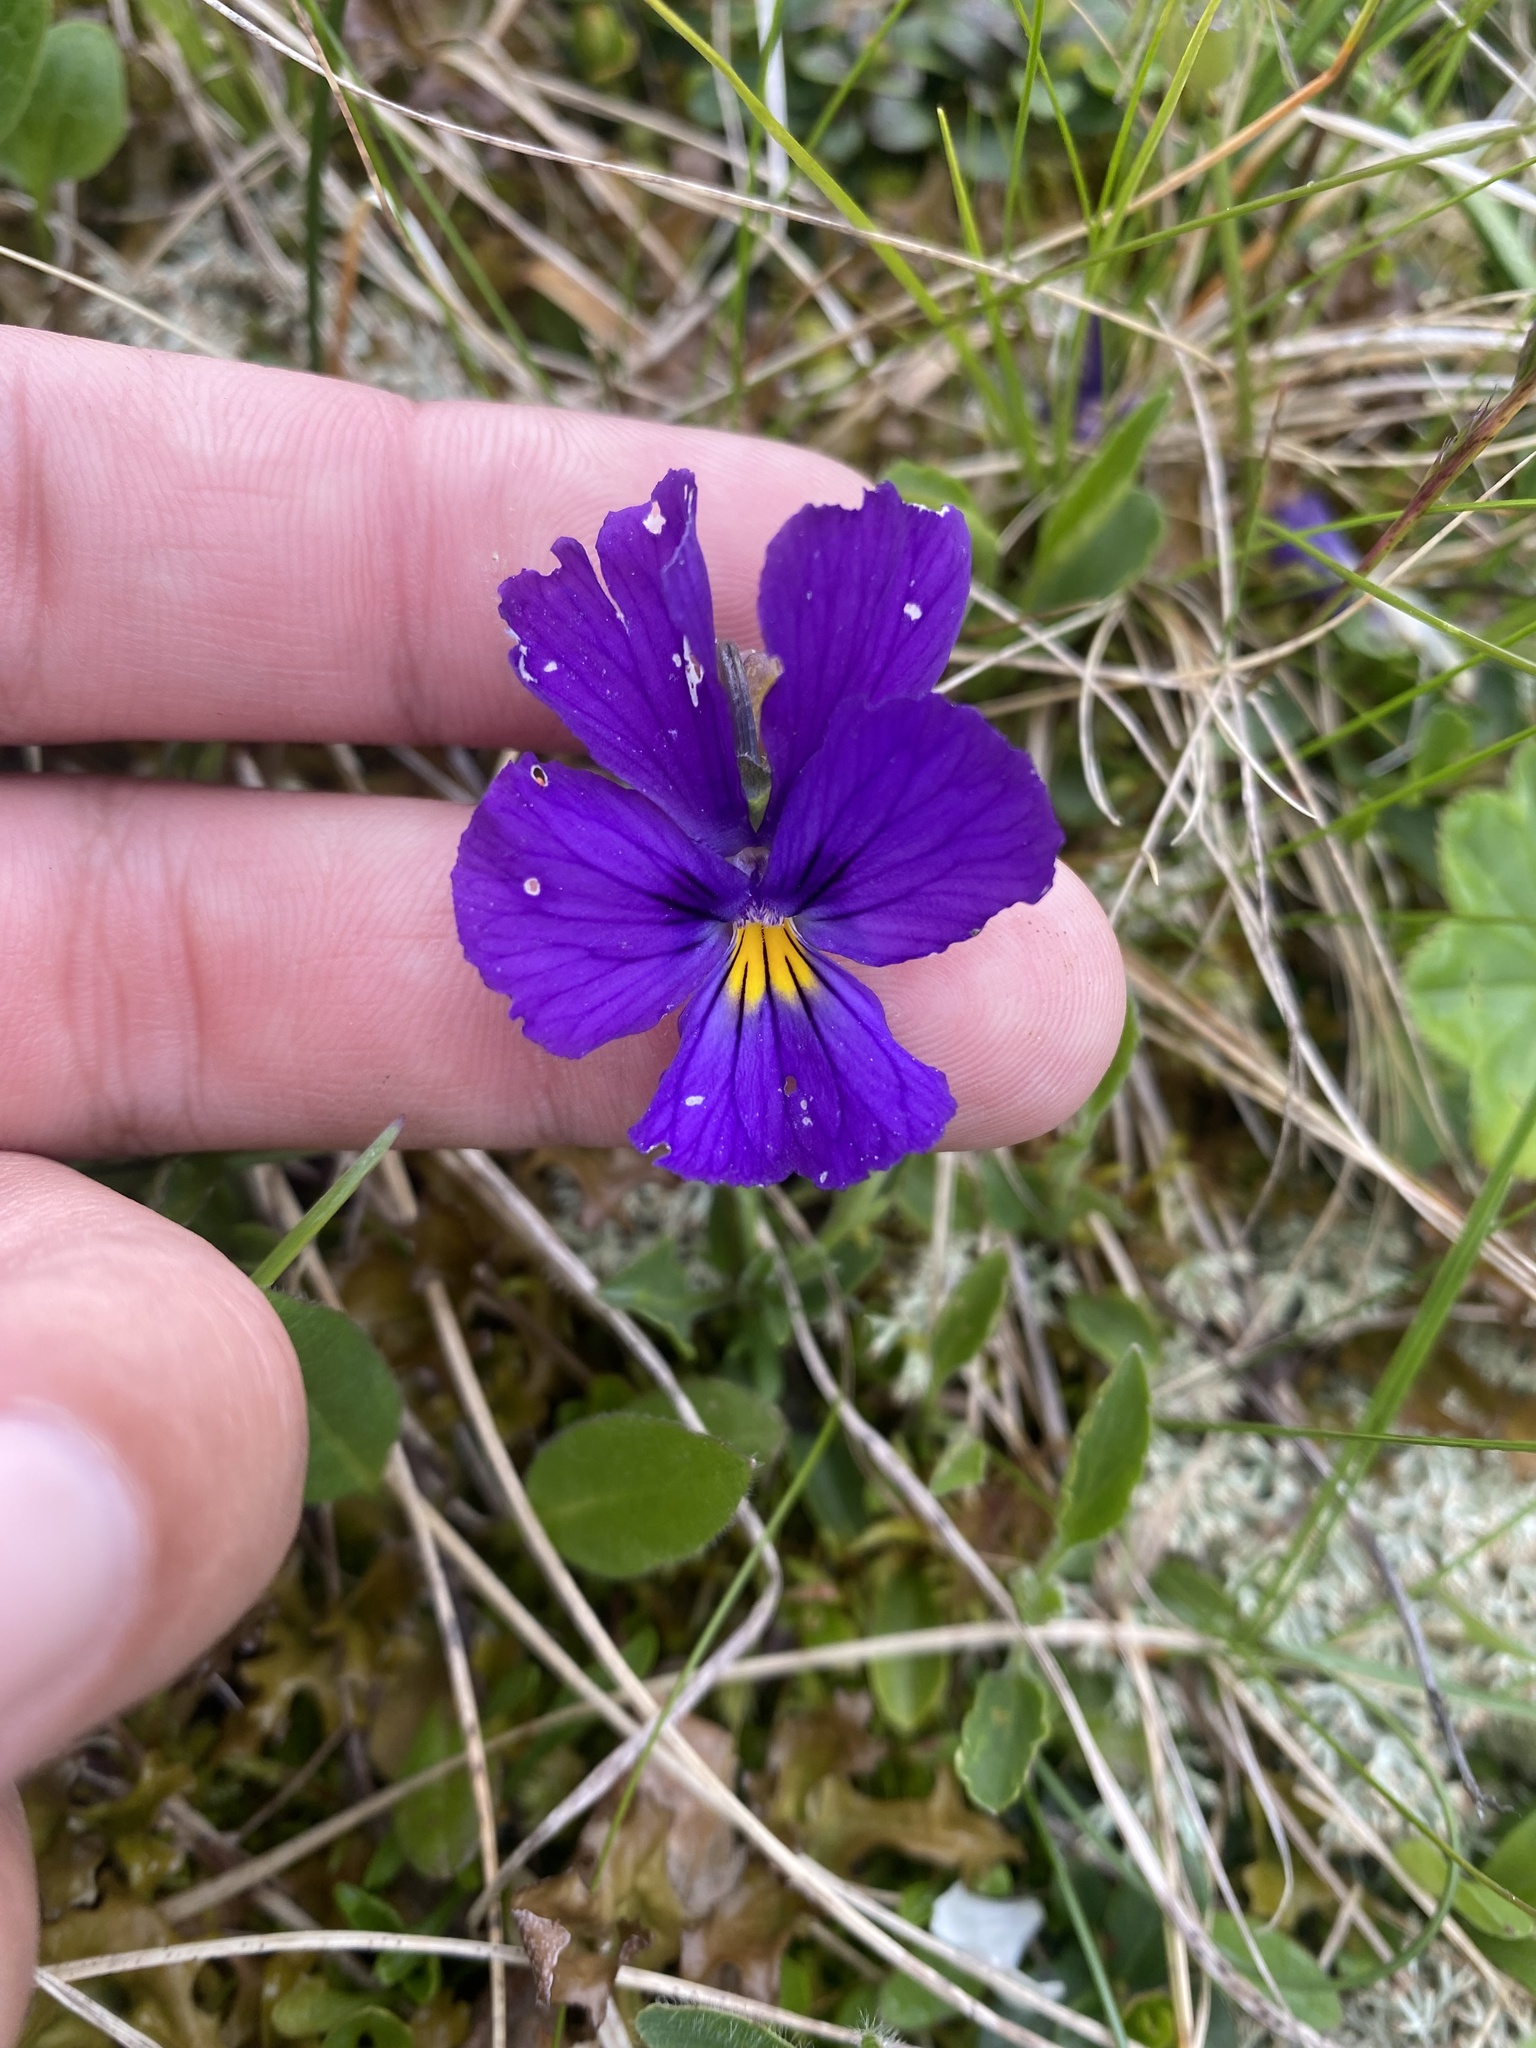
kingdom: Plantae
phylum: Tracheophyta
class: Magnoliopsida
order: Malpighiales
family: Violaceae
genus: Viola
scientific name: Viola oreades
